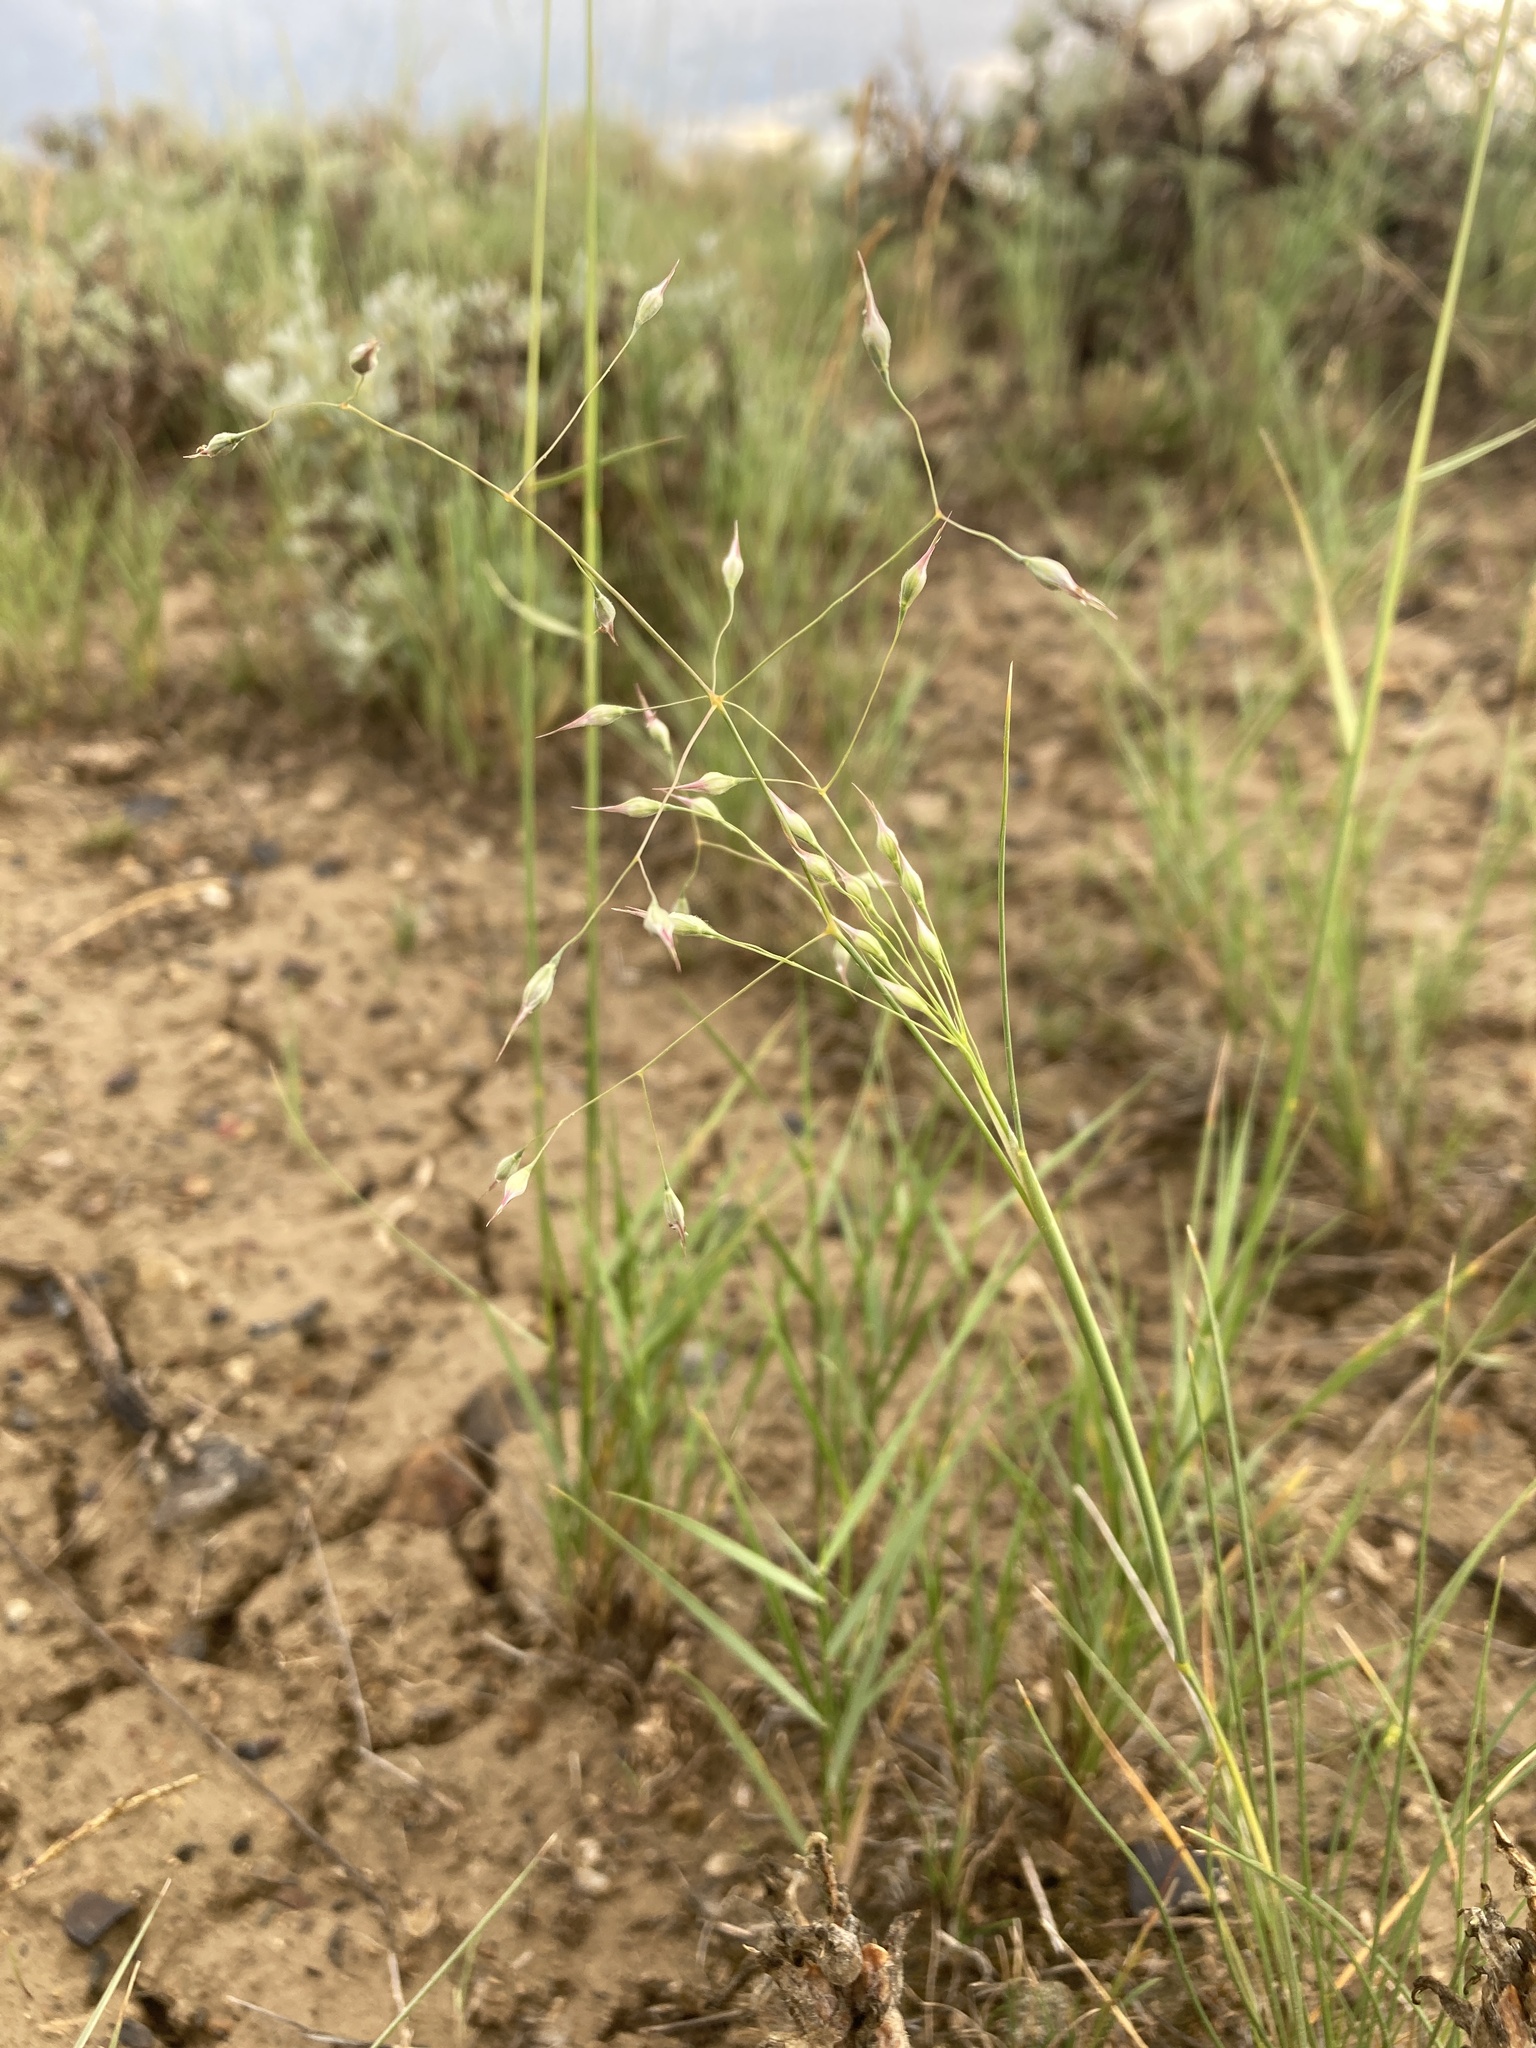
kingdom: Plantae
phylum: Tracheophyta
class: Liliopsida
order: Poales
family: Poaceae
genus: Eriocoma
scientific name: Eriocoma hymenoides
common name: Indian mountain ricegrass
